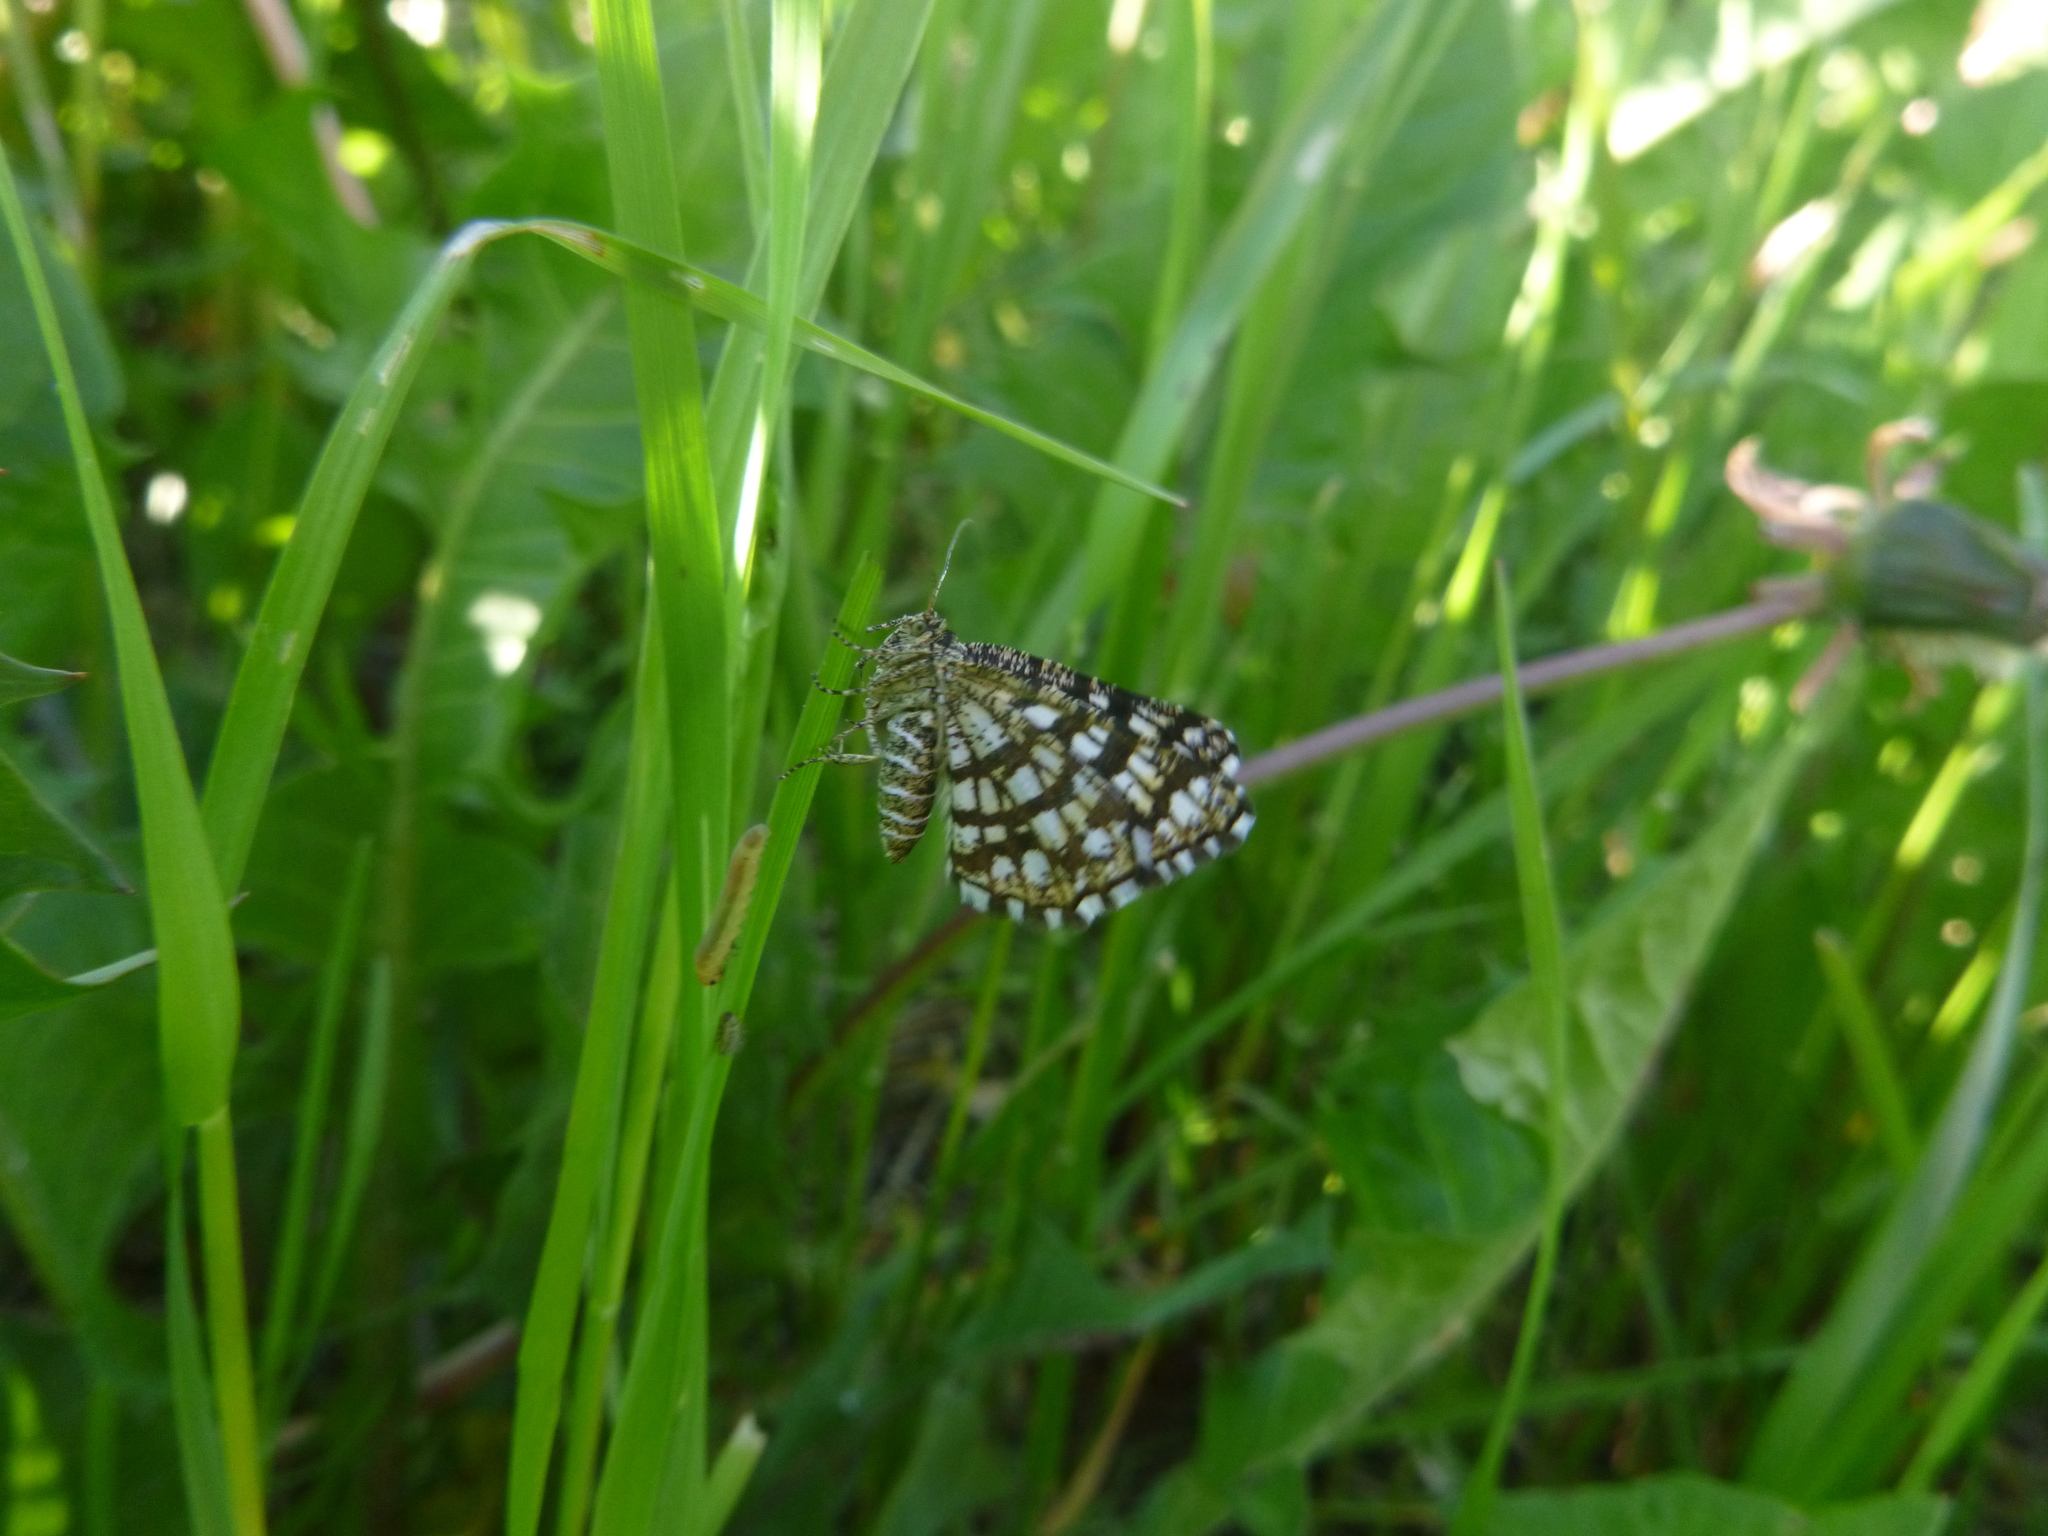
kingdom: Animalia
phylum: Arthropoda
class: Insecta
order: Lepidoptera
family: Geometridae
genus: Chiasmia
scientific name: Chiasmia clathrata
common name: Latticed heath
